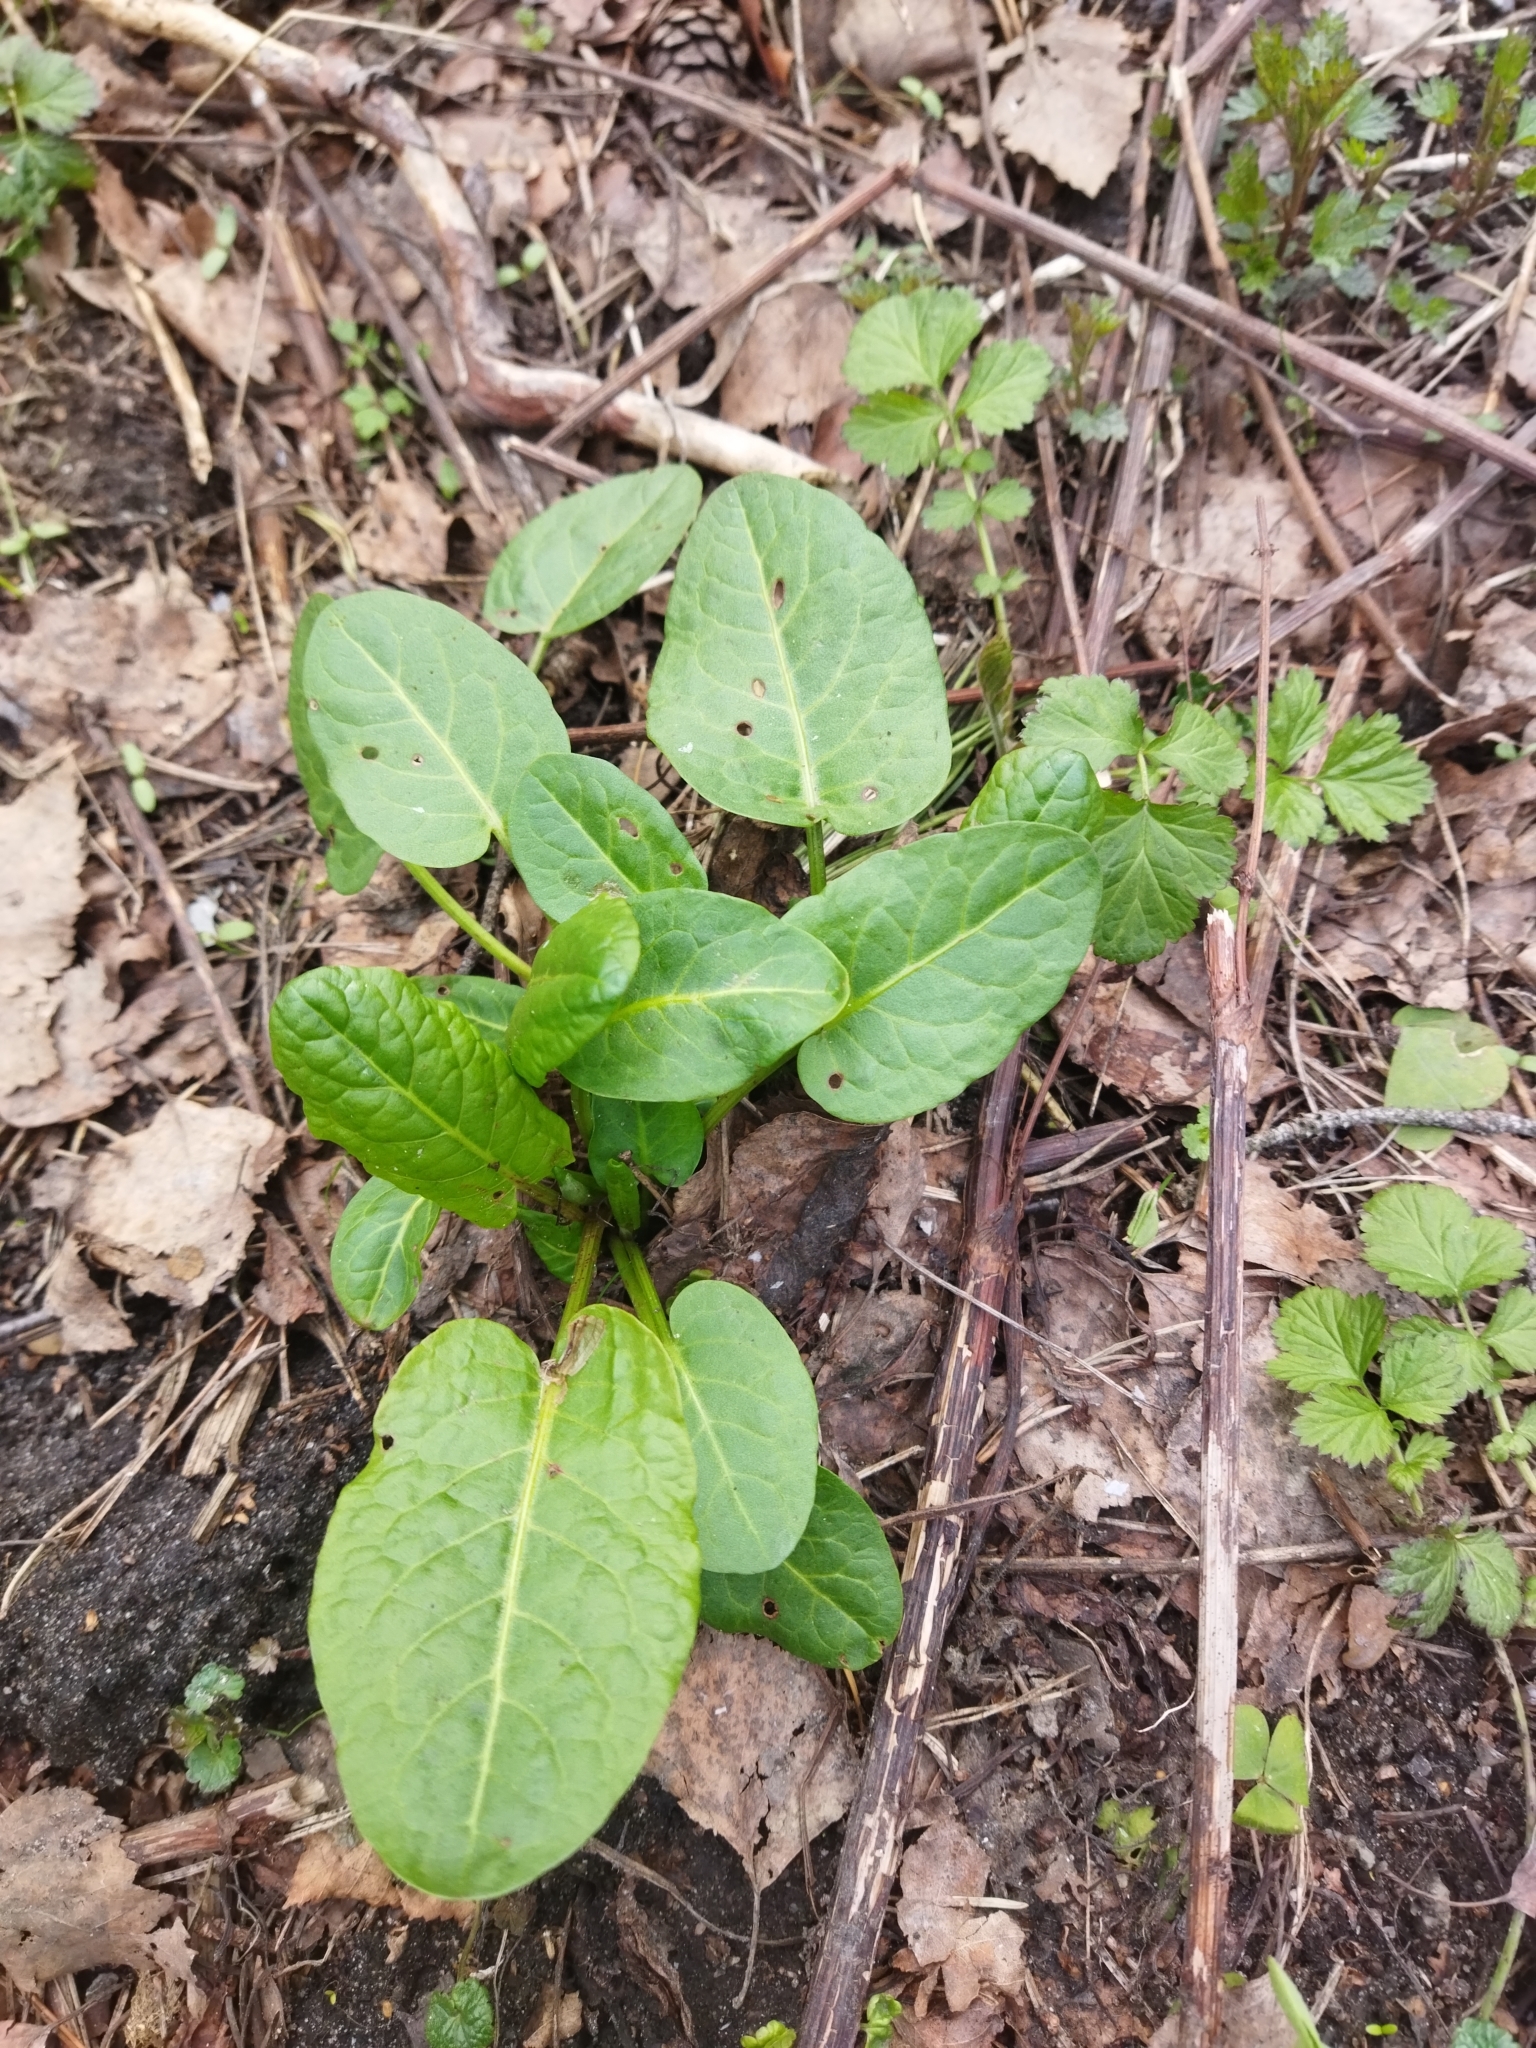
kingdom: Plantae
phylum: Tracheophyta
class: Magnoliopsida
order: Caryophyllales
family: Polygonaceae
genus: Rumex
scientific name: Rumex obtusifolius
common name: Bitter dock
